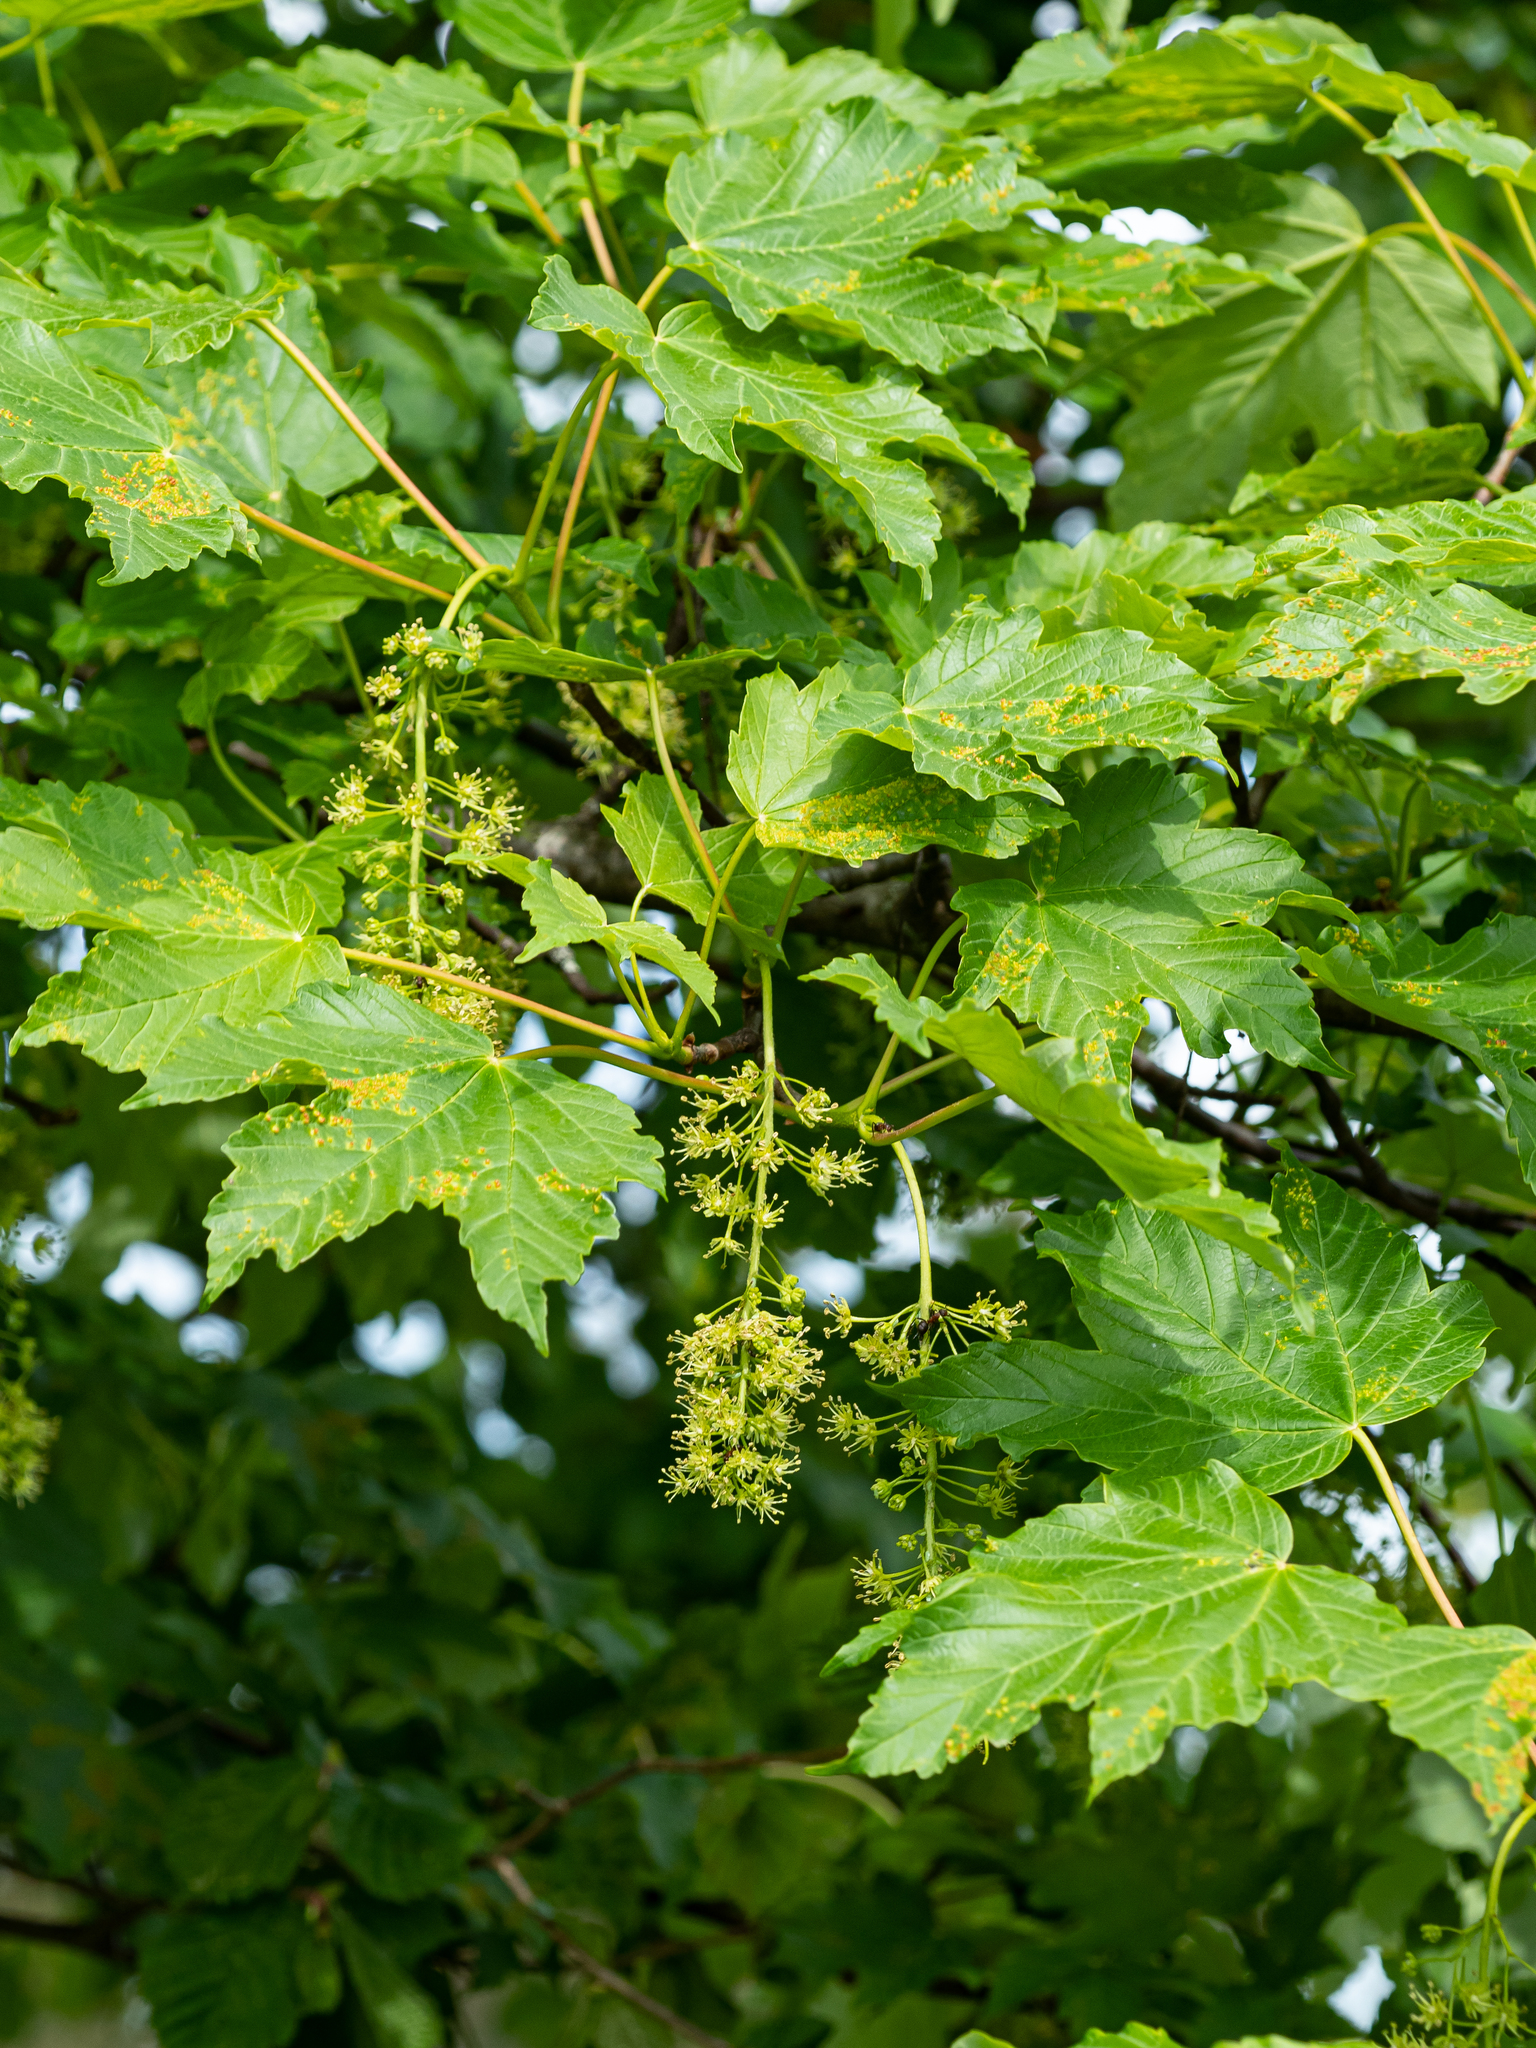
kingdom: Plantae
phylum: Tracheophyta
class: Magnoliopsida
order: Sapindales
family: Sapindaceae
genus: Acer
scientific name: Acer pseudoplatanus
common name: Sycamore
